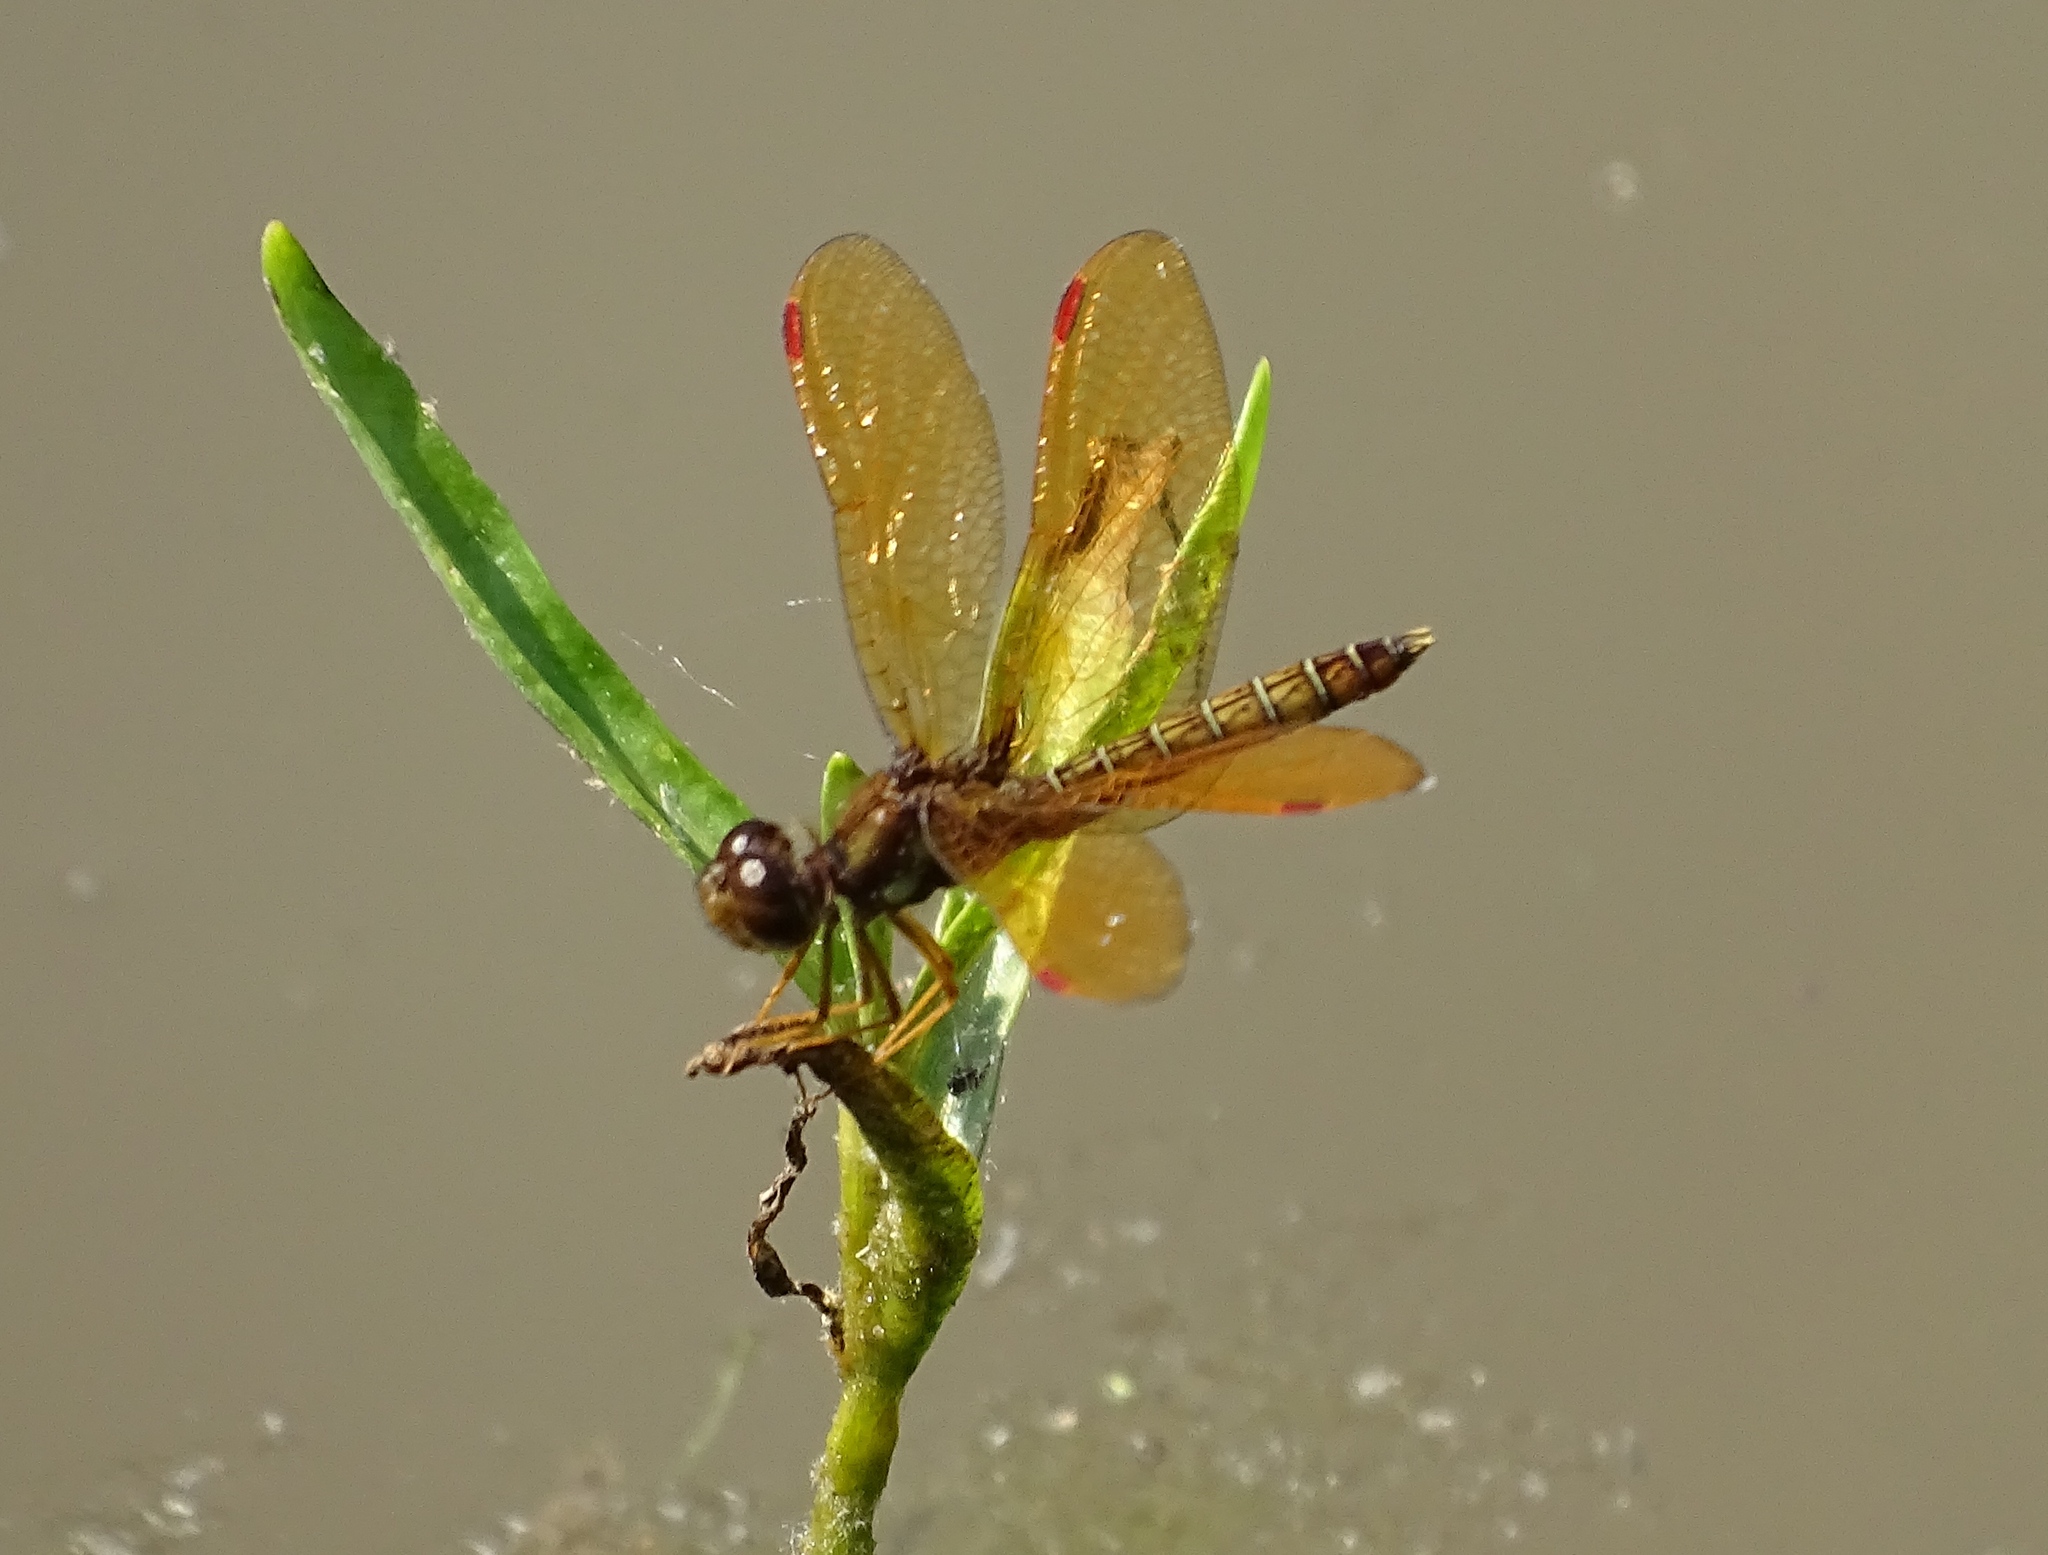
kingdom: Animalia
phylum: Arthropoda
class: Insecta
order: Odonata
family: Libellulidae
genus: Perithemis
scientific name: Perithemis tenera
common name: Eastern amberwing
